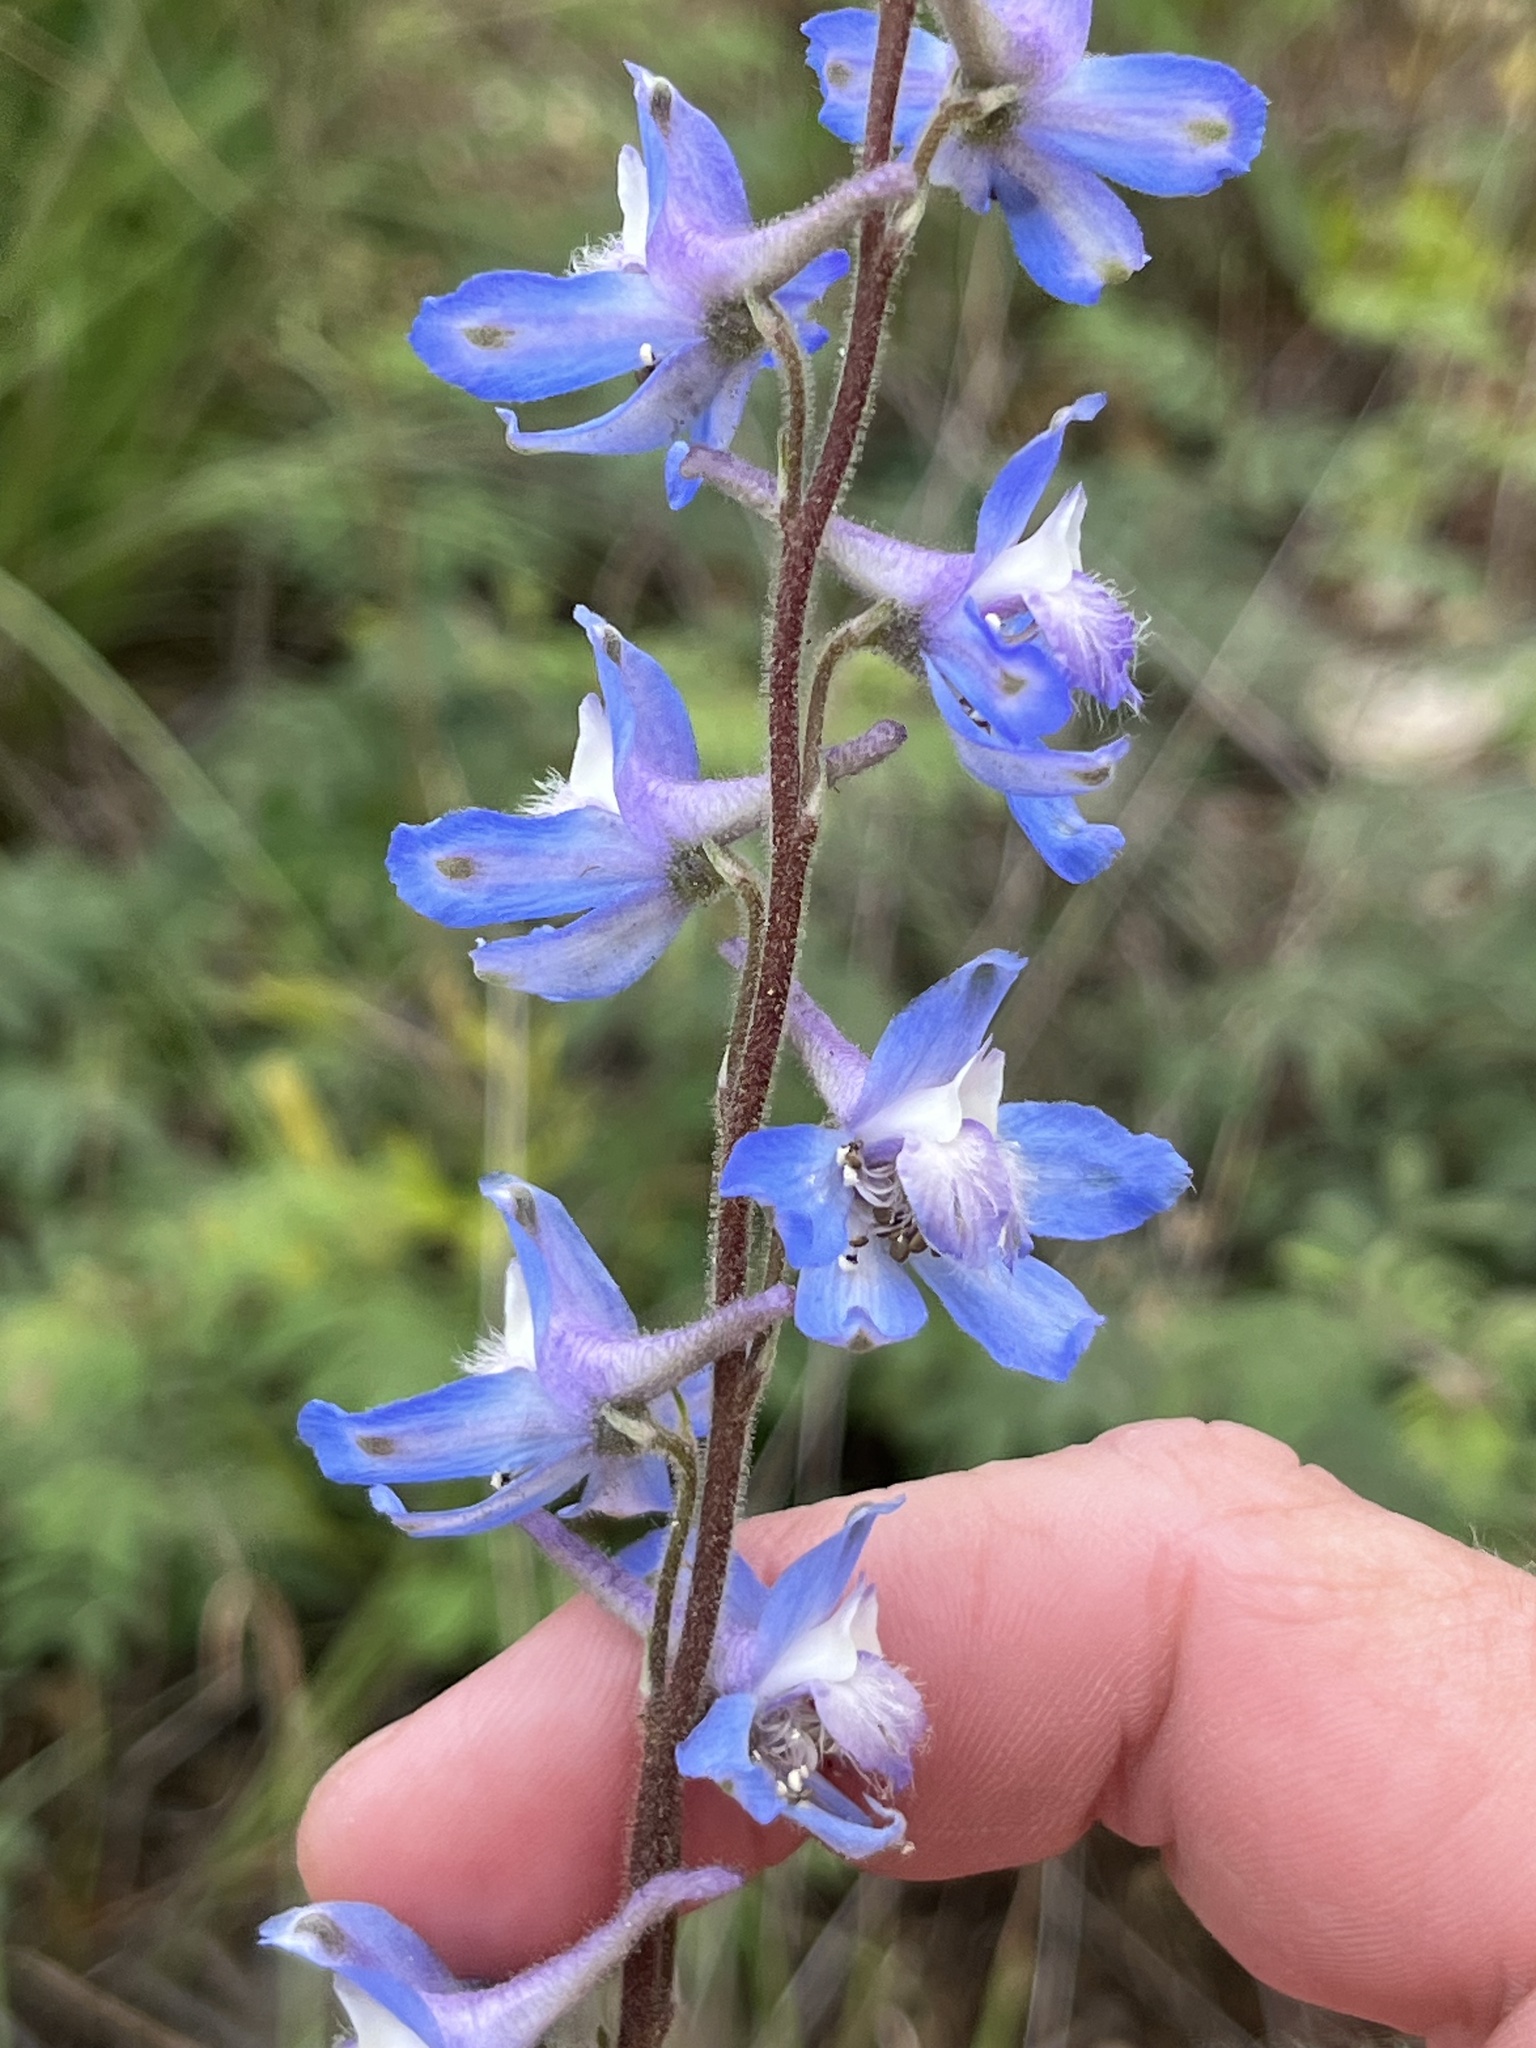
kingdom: Plantae
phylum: Tracheophyta
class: Magnoliopsida
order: Ranunculales
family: Ranunculaceae
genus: Delphinium
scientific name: Delphinium carolinianum
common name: Carolina larkspur
